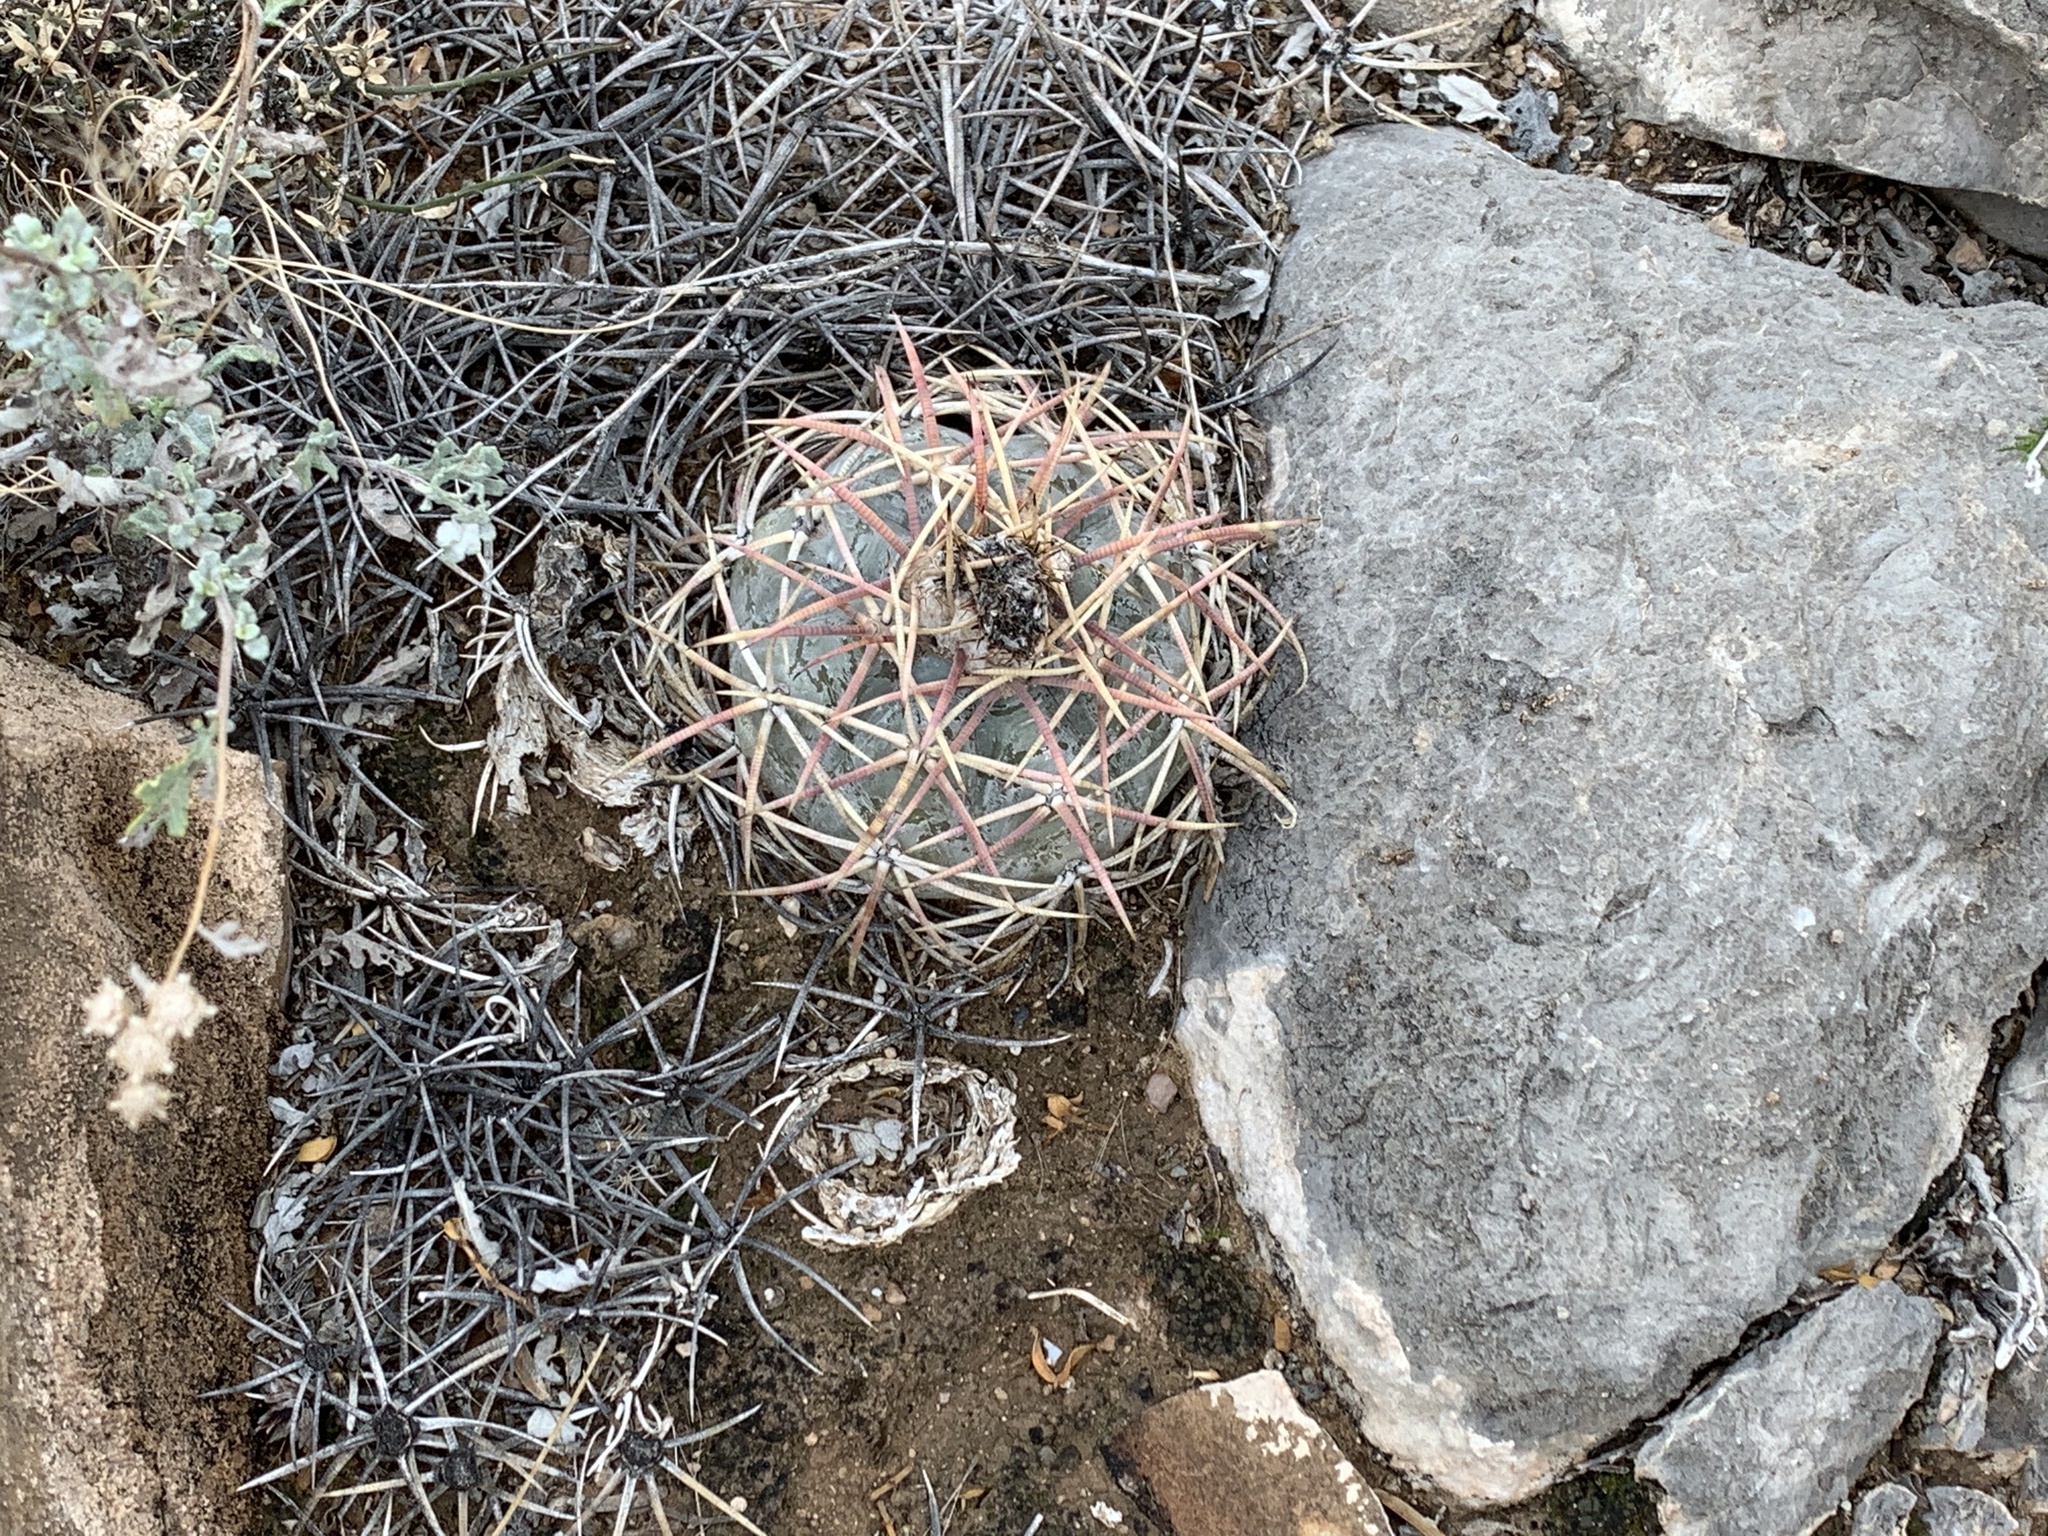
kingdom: Plantae
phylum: Tracheophyta
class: Magnoliopsida
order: Caryophyllales
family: Cactaceae
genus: Echinocactus
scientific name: Echinocactus horizonthalonius
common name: Devilshead
